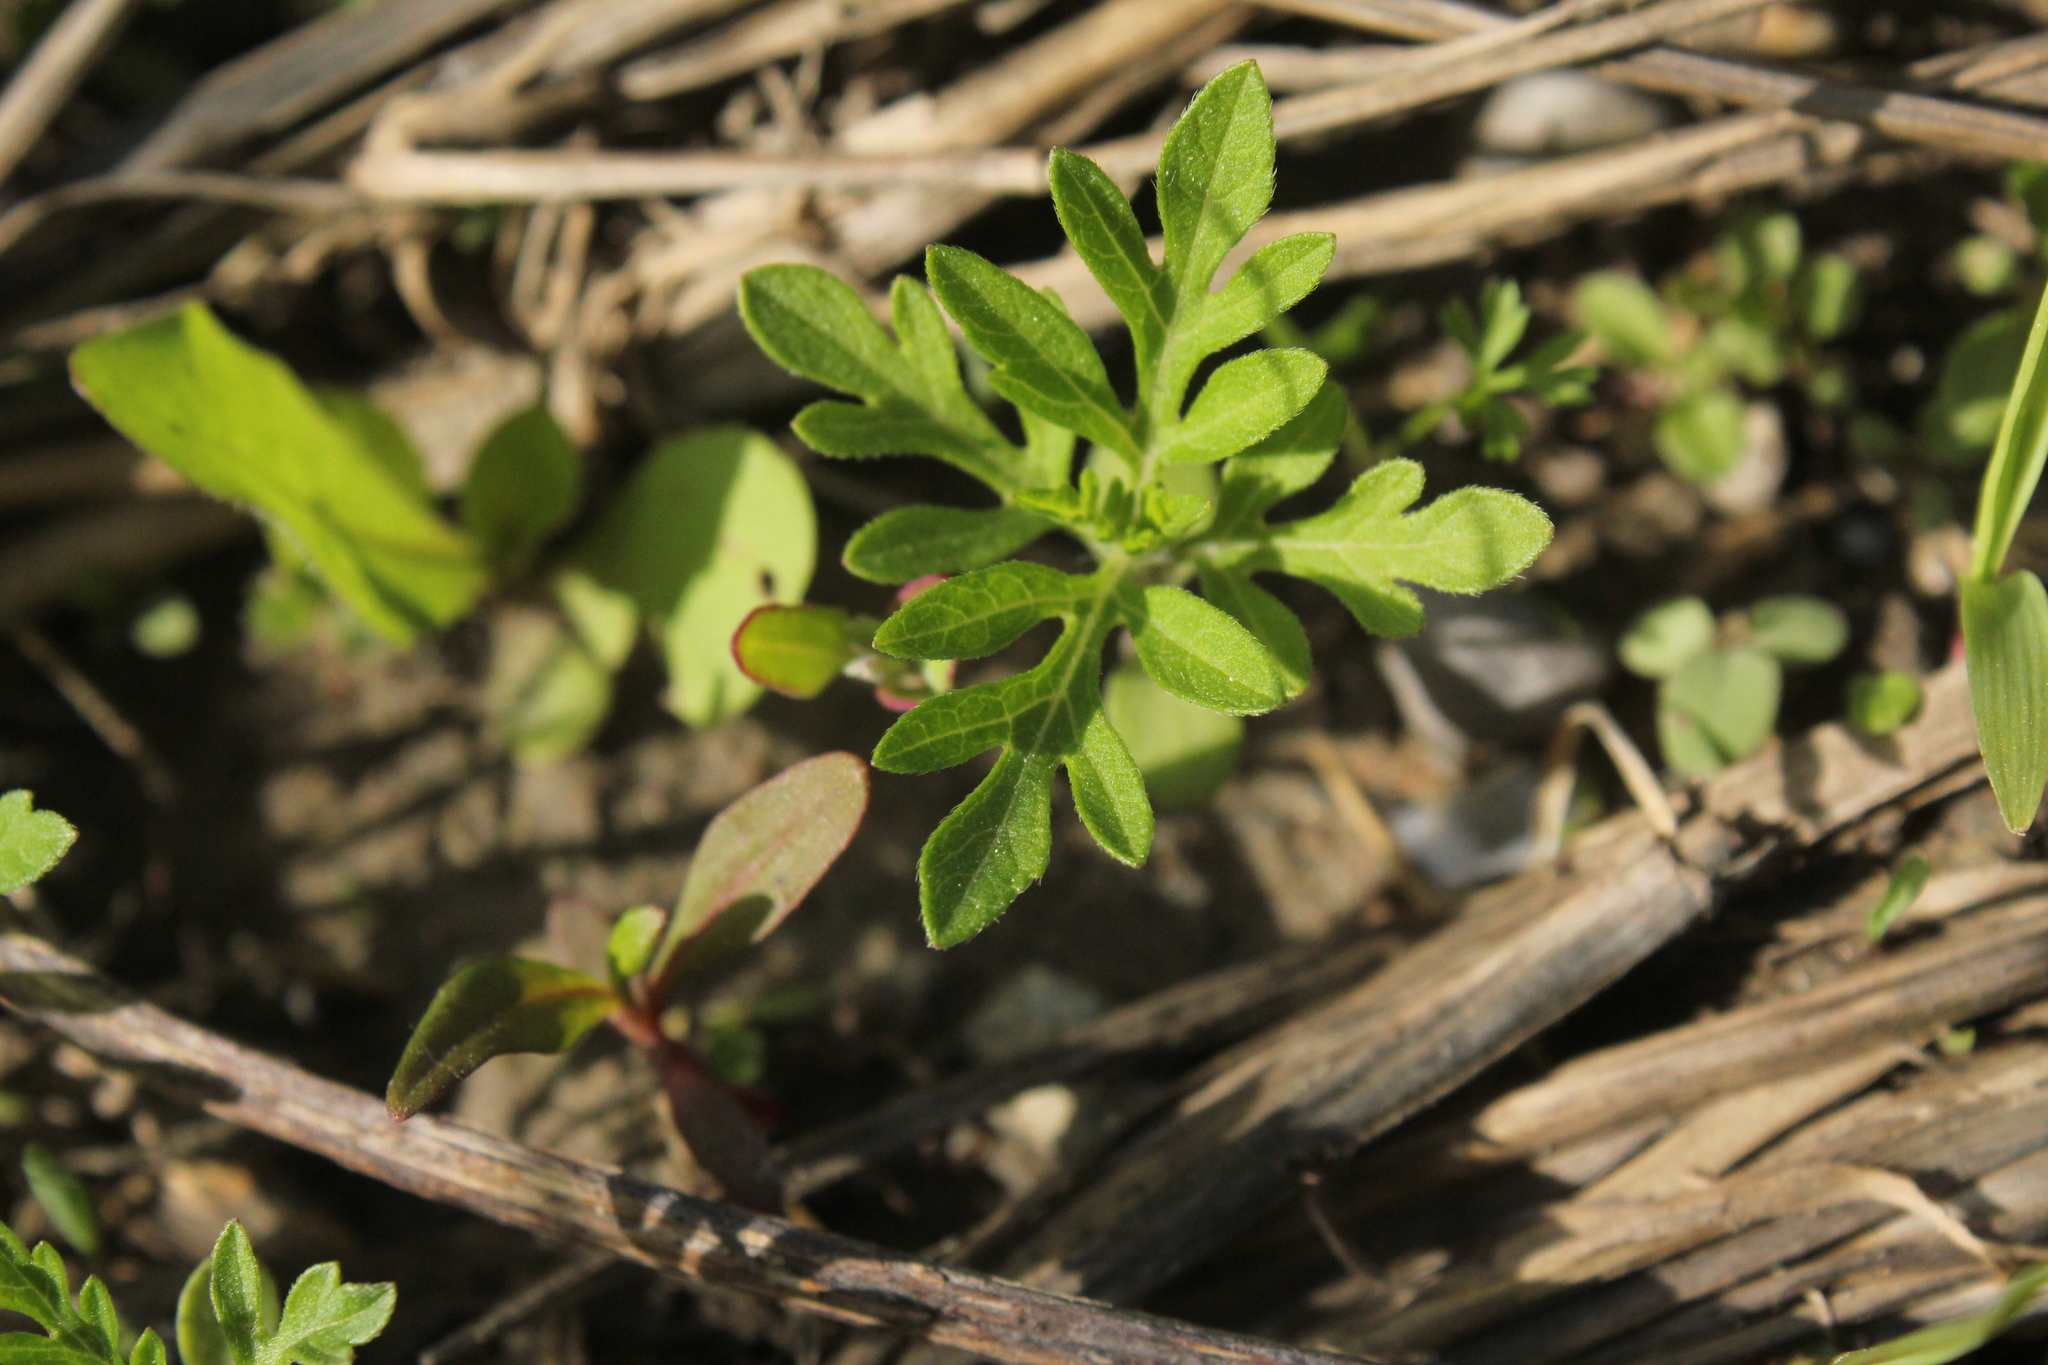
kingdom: Plantae
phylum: Tracheophyta
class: Magnoliopsida
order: Asterales
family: Asteraceae
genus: Ambrosia
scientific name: Ambrosia artemisiifolia
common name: Annual ragweed
